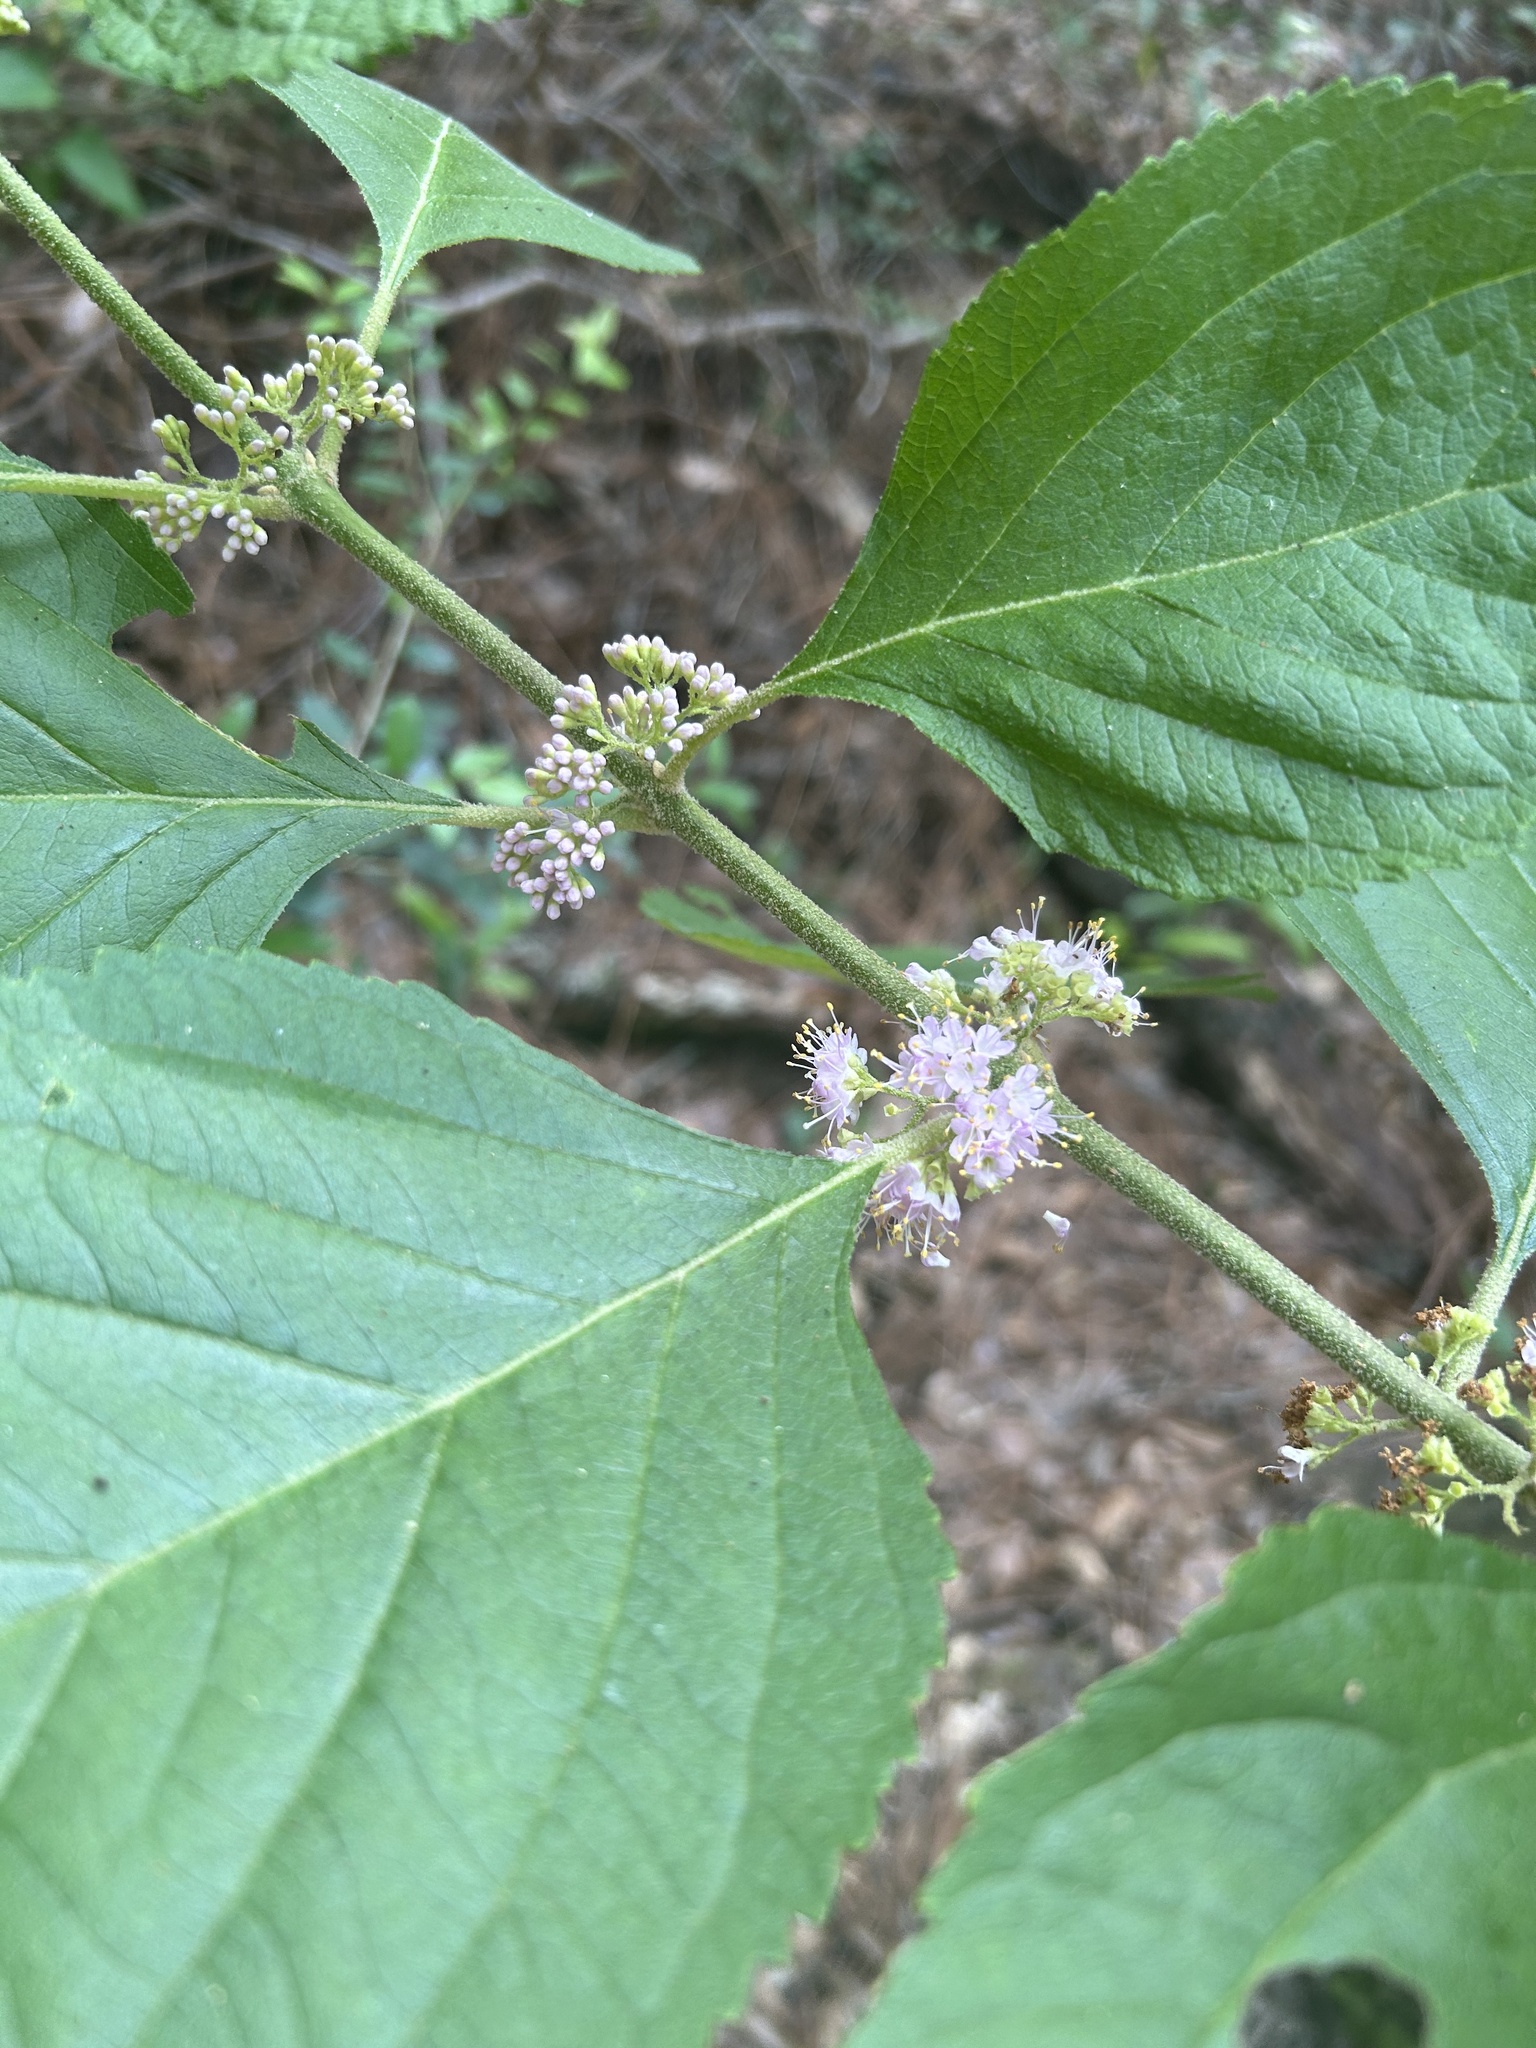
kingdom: Plantae
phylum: Tracheophyta
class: Magnoliopsida
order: Lamiales
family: Lamiaceae
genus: Callicarpa
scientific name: Callicarpa americana
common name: American beautyberry
